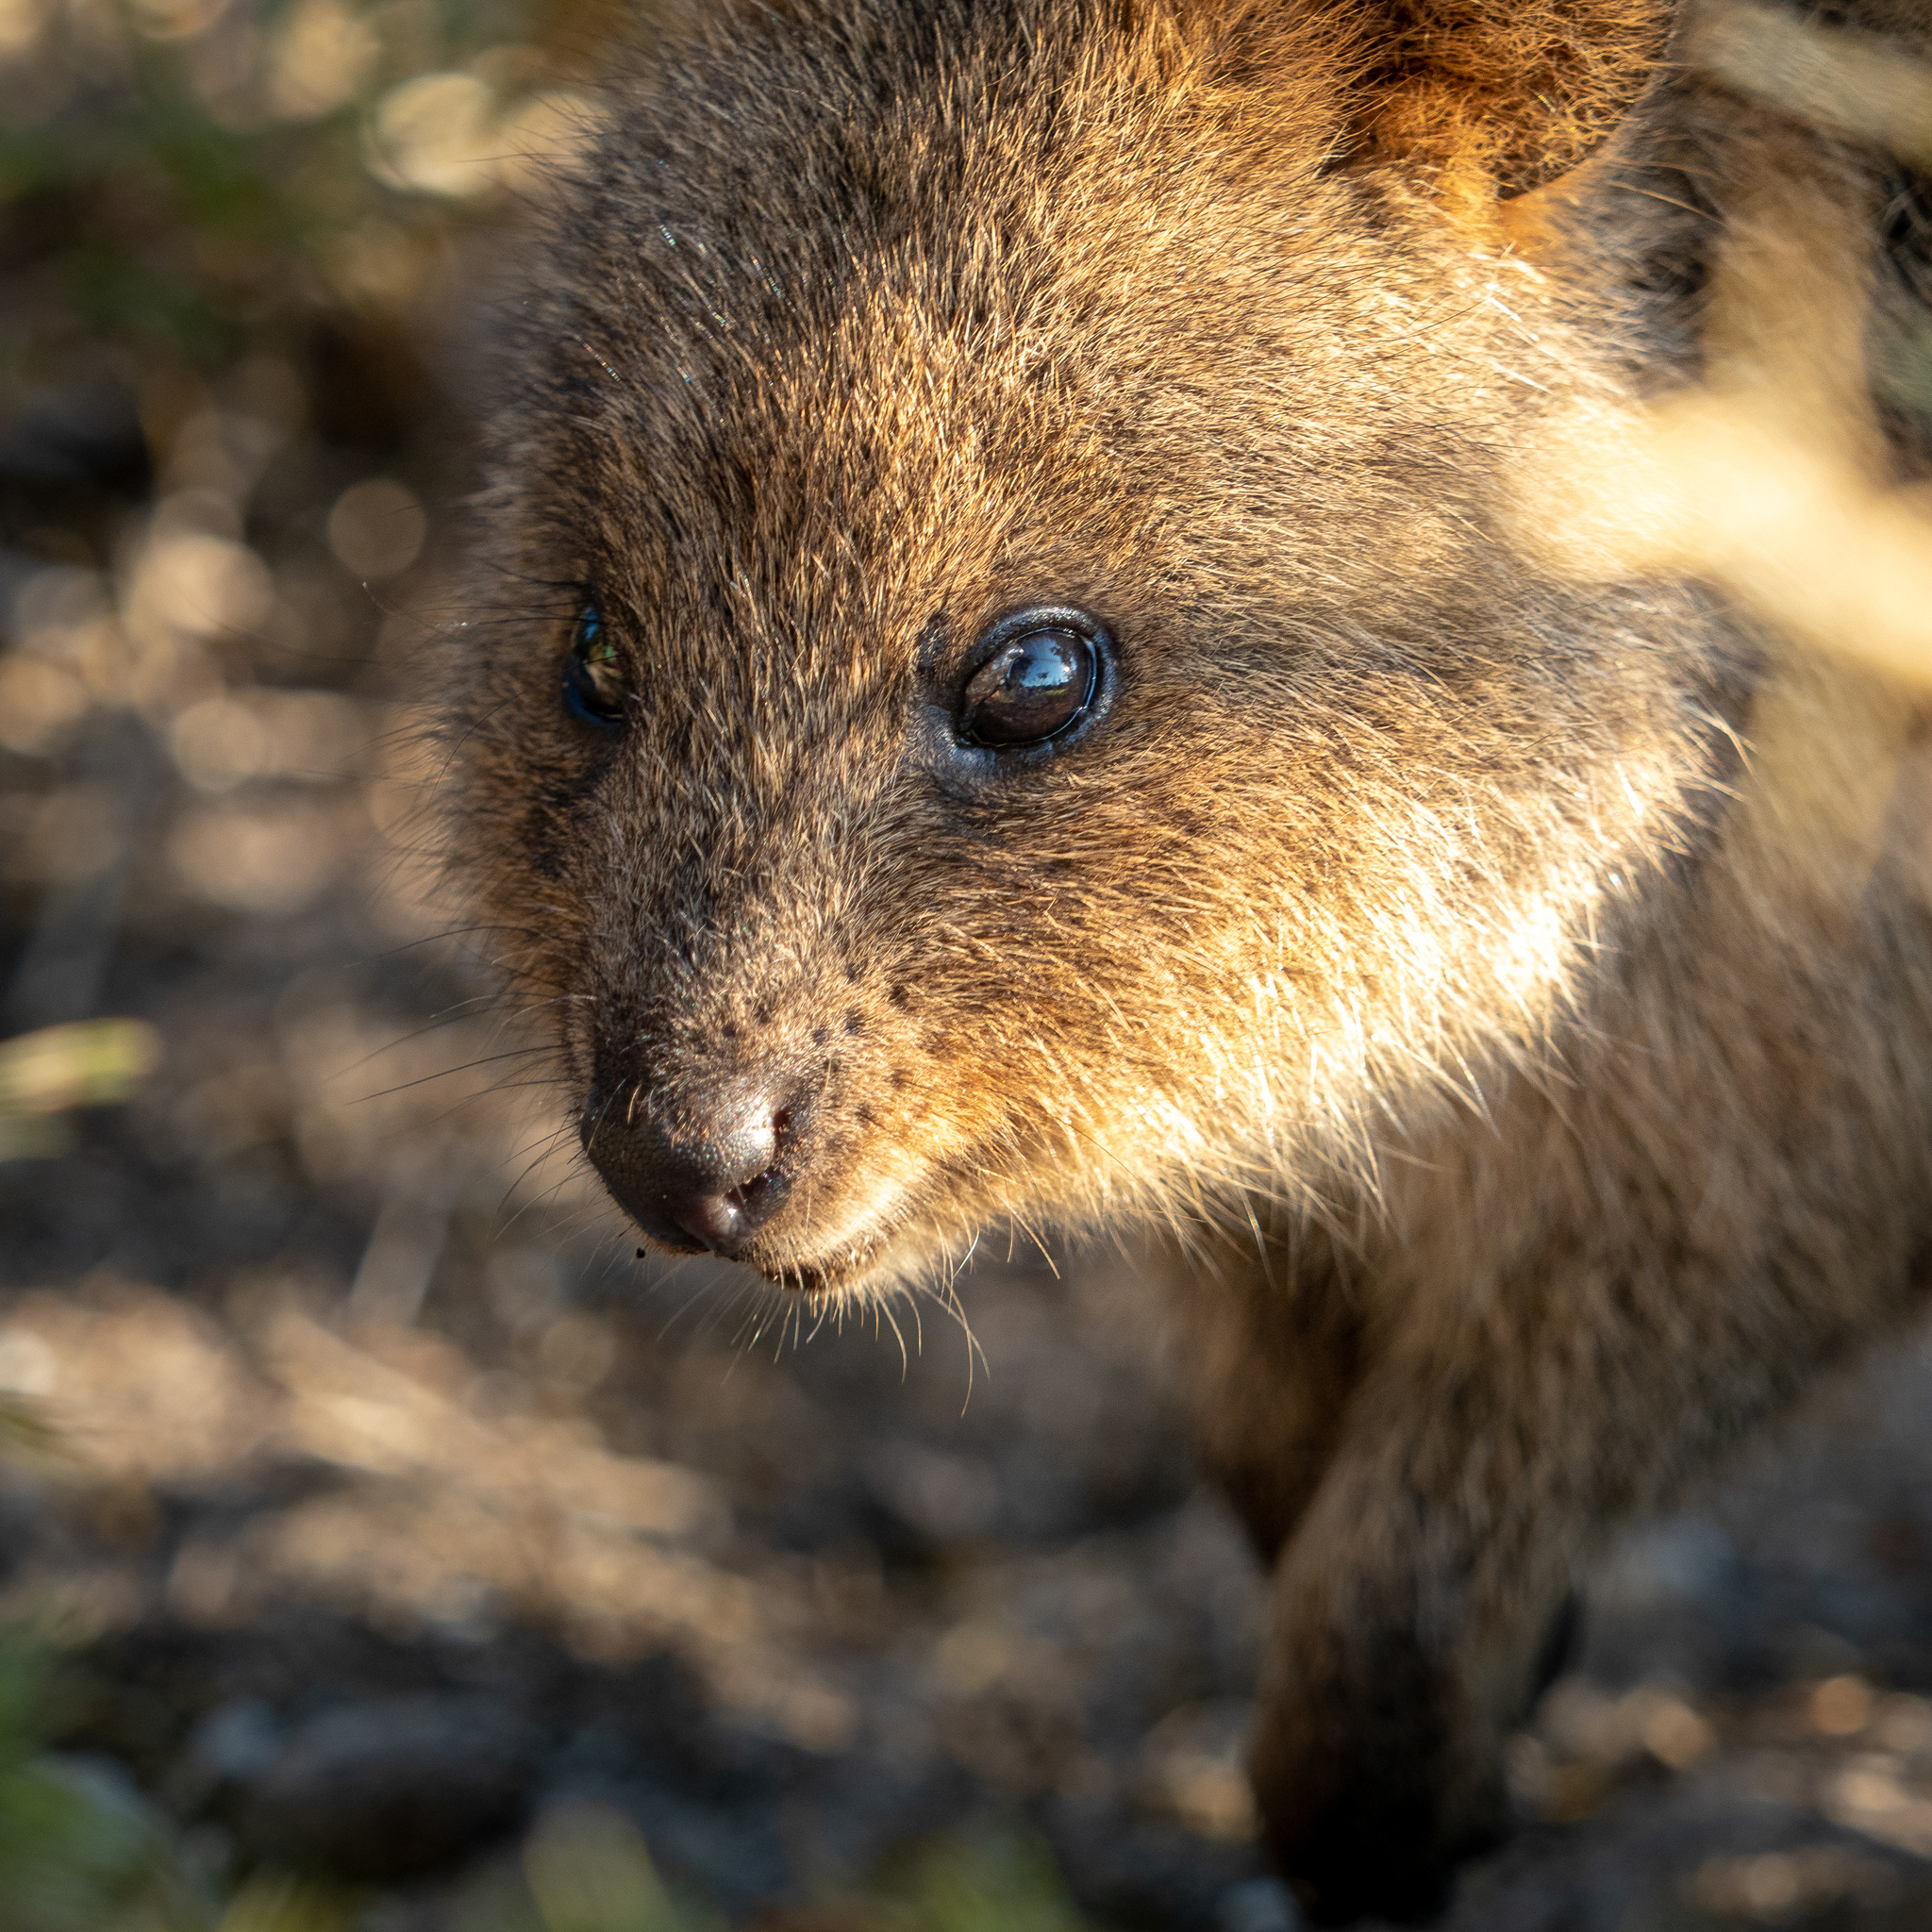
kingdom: Animalia
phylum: Chordata
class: Mammalia
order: Diprotodontia
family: Macropodidae
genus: Setonix
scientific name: Setonix brachyurus
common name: Quokka
